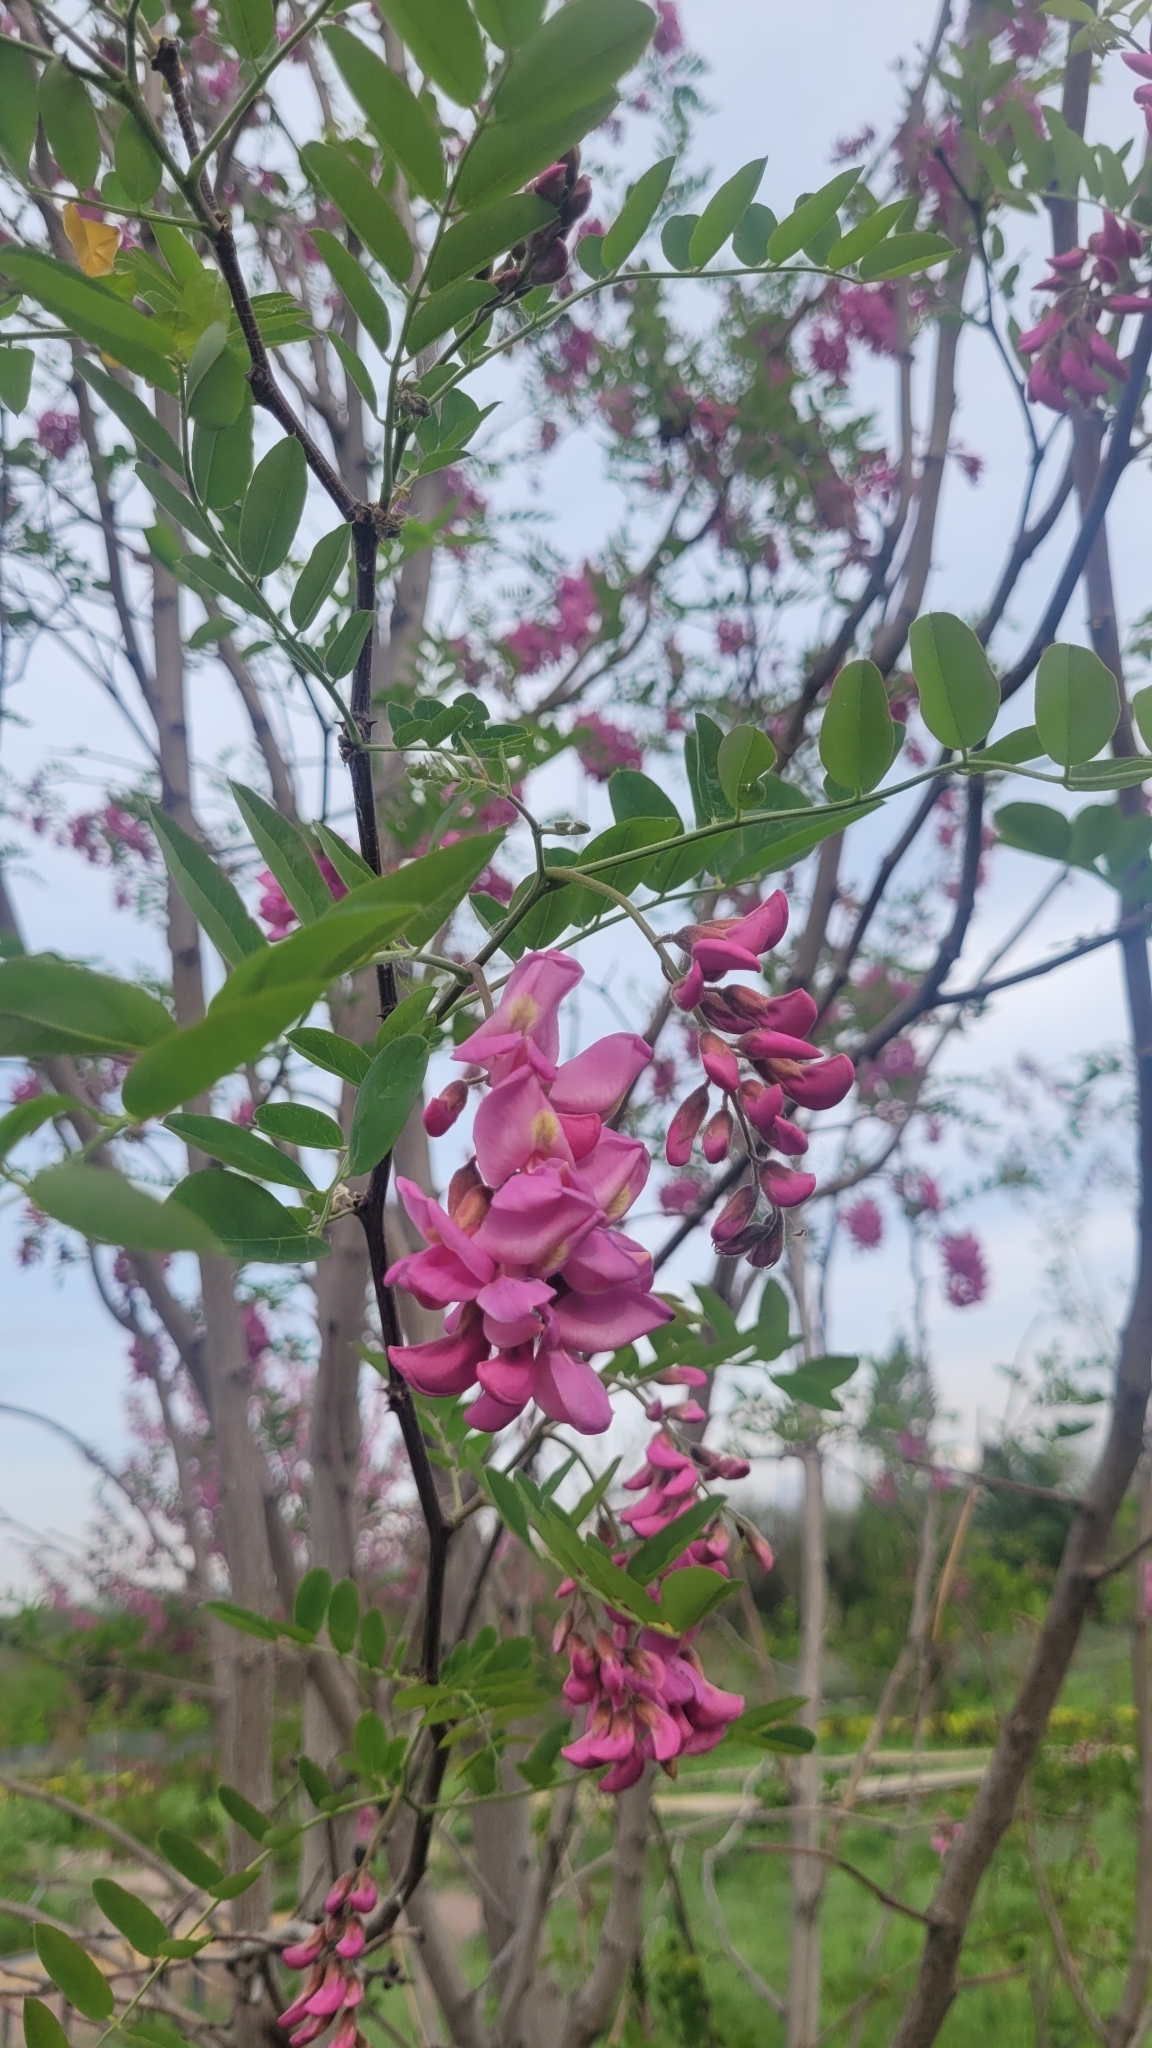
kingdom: Plantae
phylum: Tracheophyta
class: Magnoliopsida
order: Fabales
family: Fabaceae
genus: Robinia
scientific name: Robinia margarettae
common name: Margarett's locust
